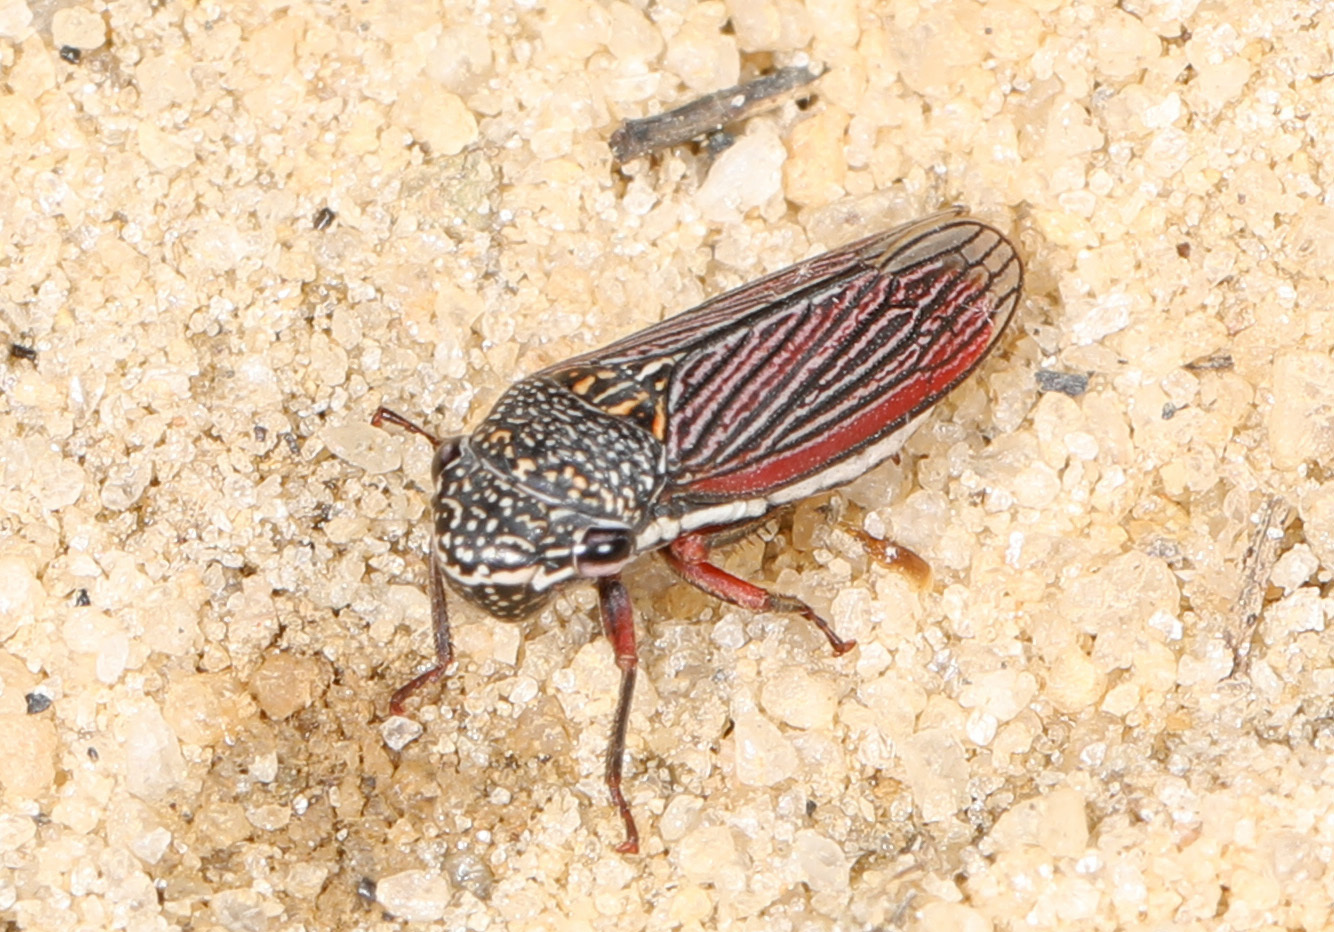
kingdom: Animalia
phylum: Arthropoda
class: Insecta
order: Hemiptera
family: Cicadellidae
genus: Cuerna
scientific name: Cuerna costalis
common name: Lateral-lined sharpshooter
